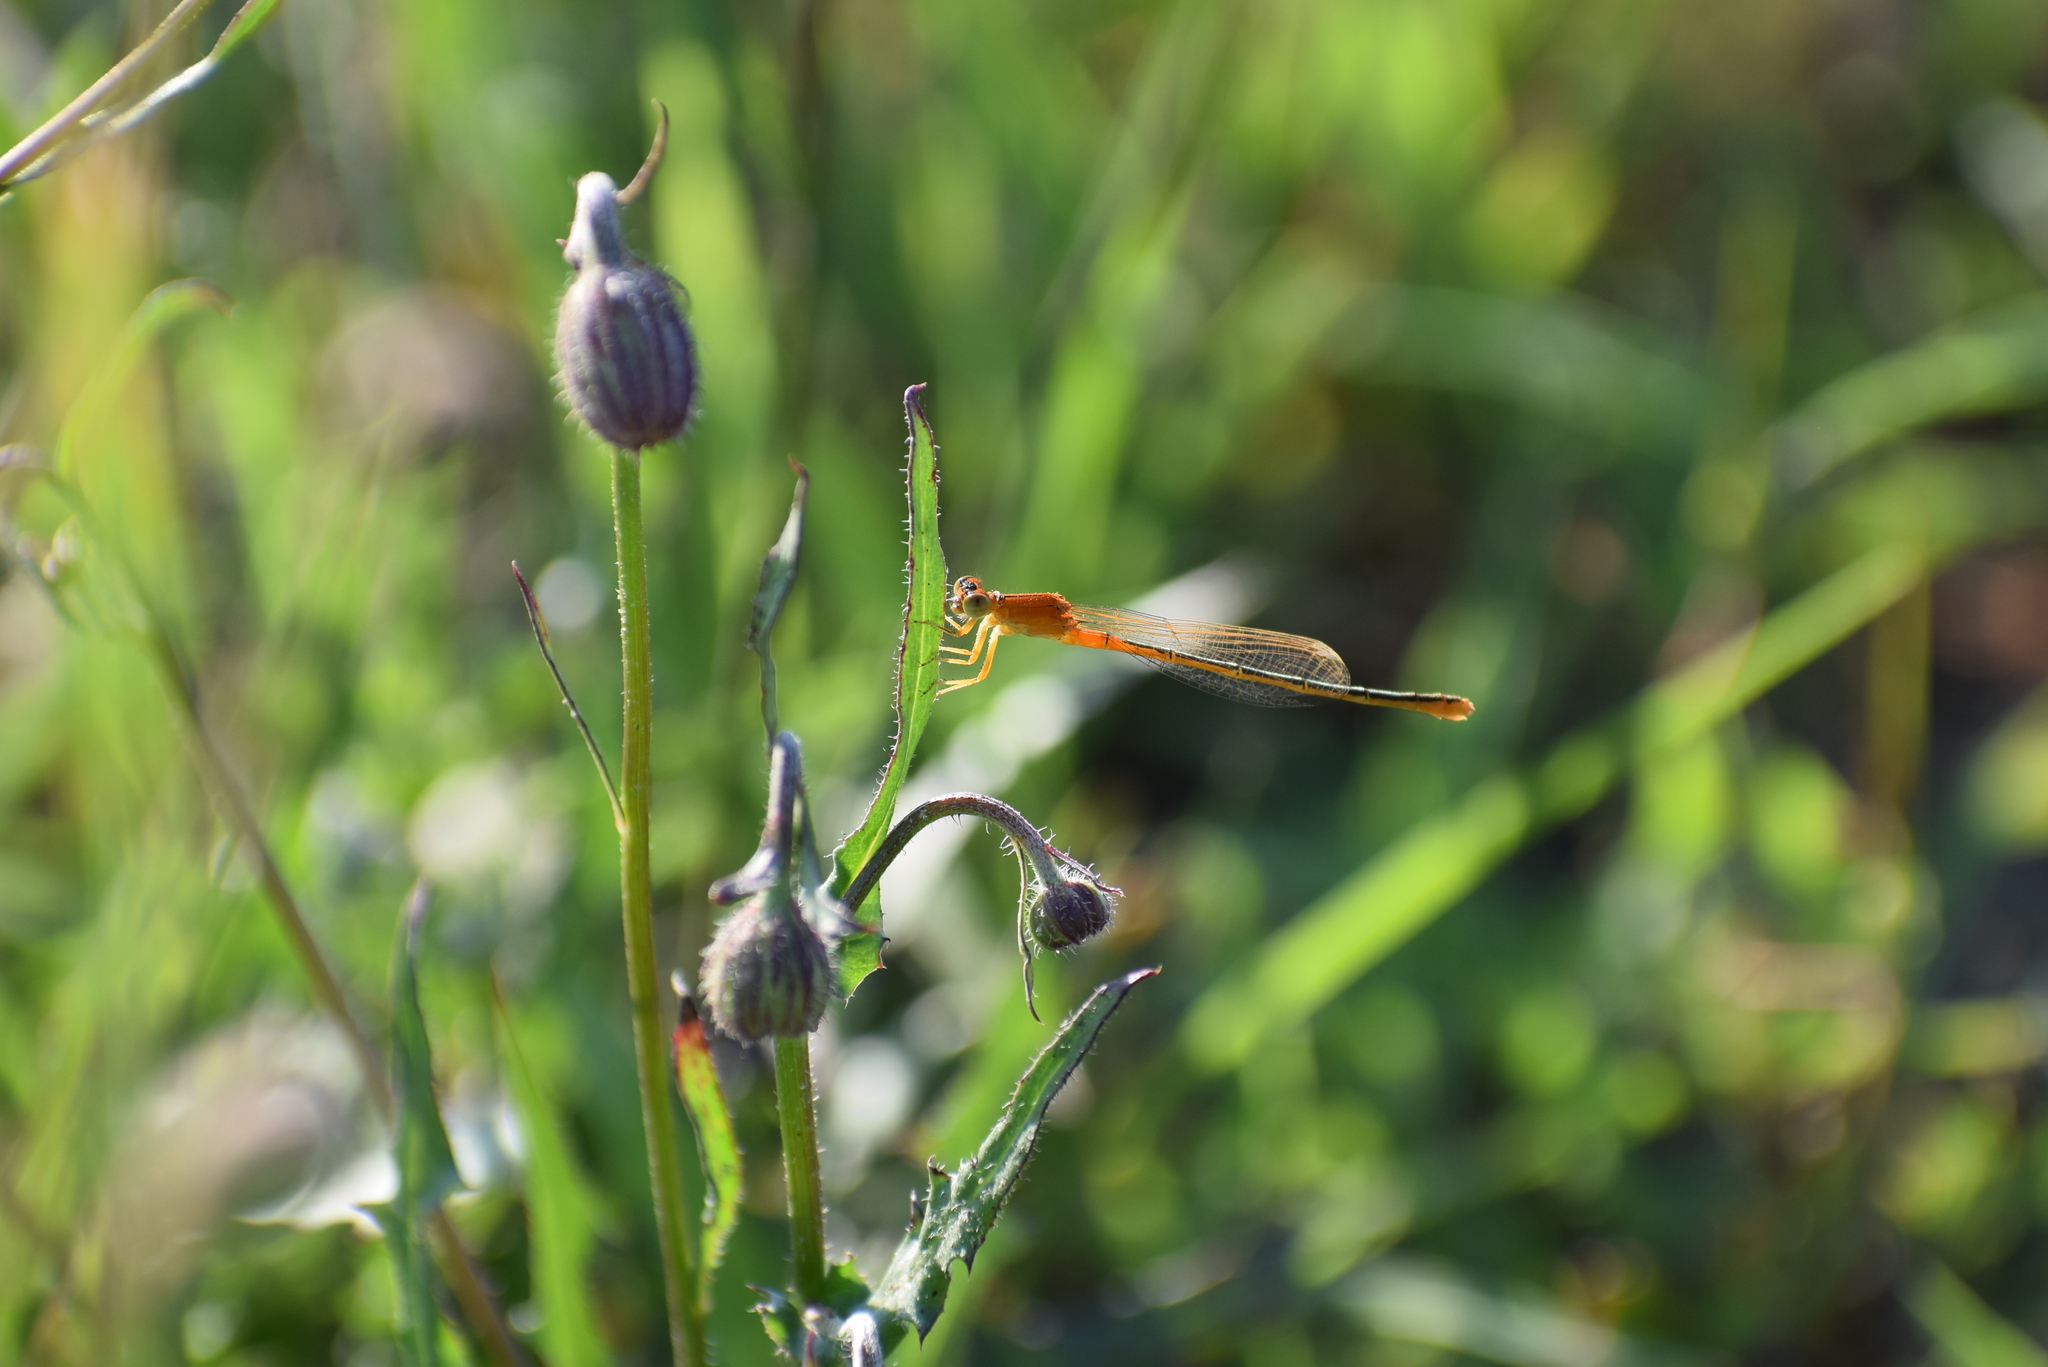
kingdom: Animalia
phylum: Arthropoda
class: Insecta
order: Odonata
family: Coenagrionidae
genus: Ischnura
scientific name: Ischnura pumilio
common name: Scarce blue-tailed damselfly
